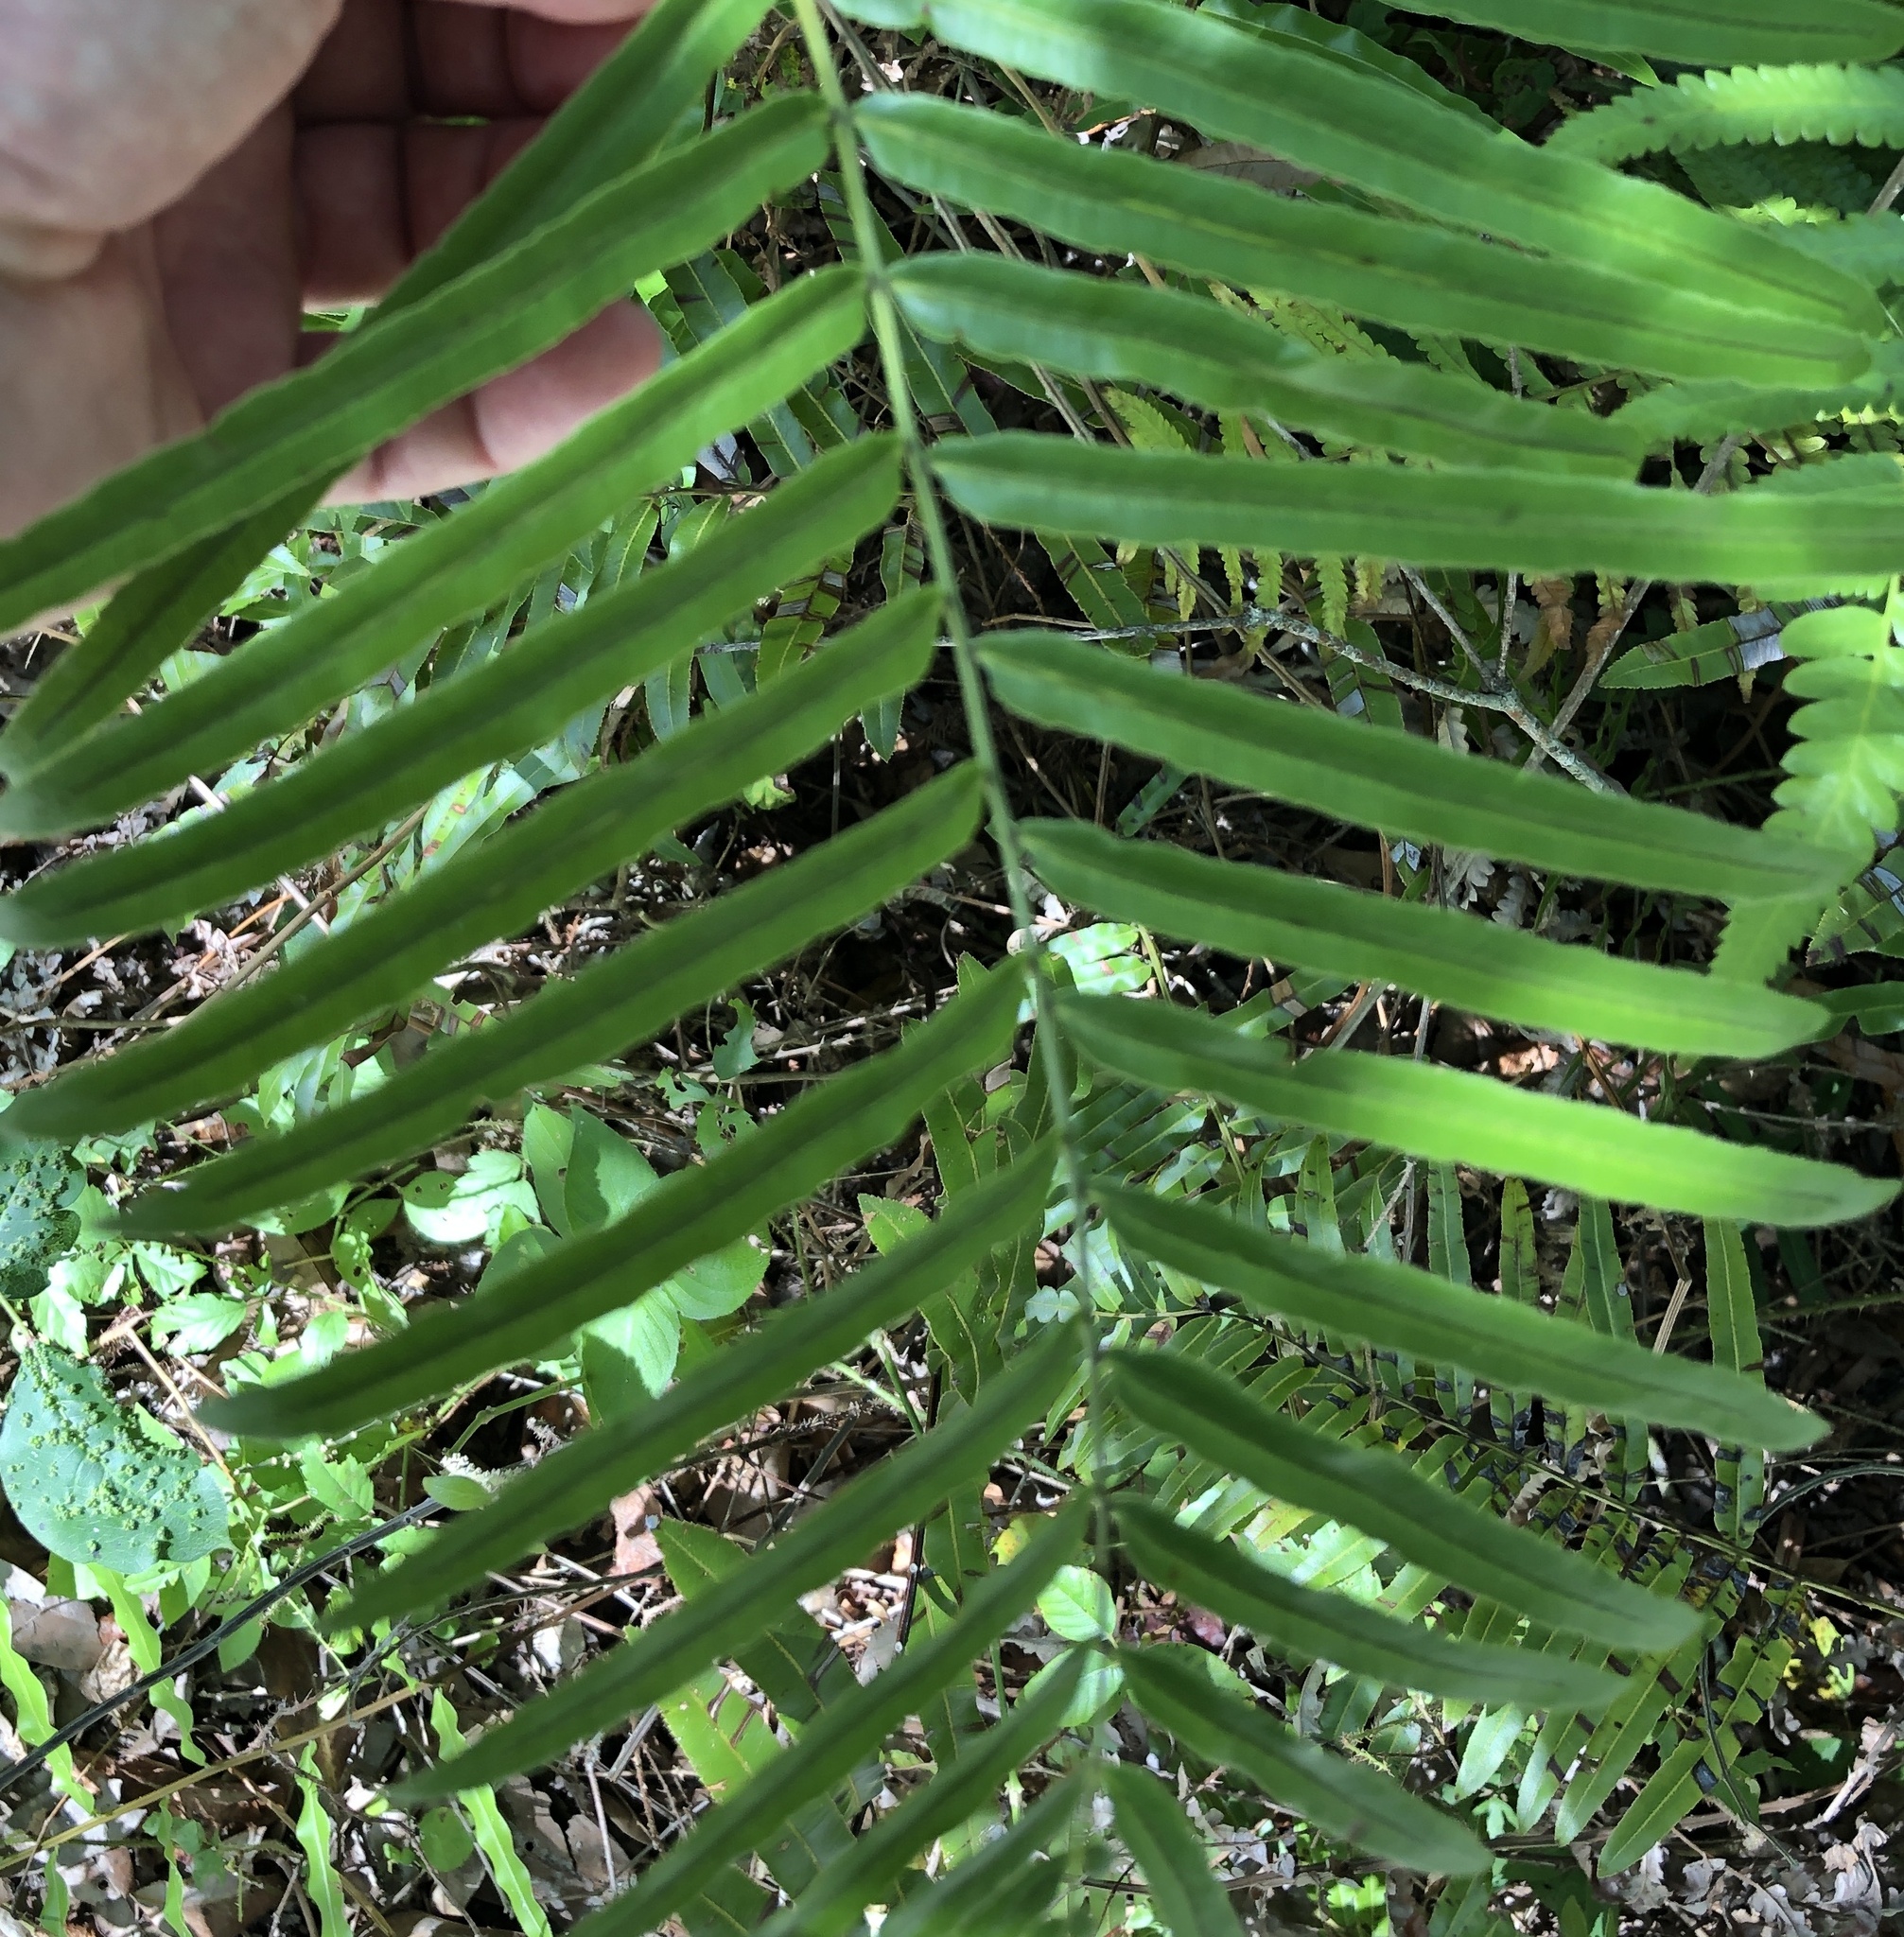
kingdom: Plantae
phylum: Tracheophyta
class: Polypodiopsida
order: Polypodiales
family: Blechnaceae
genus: Telmatoblechnum
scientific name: Telmatoblechnum serrulatum
